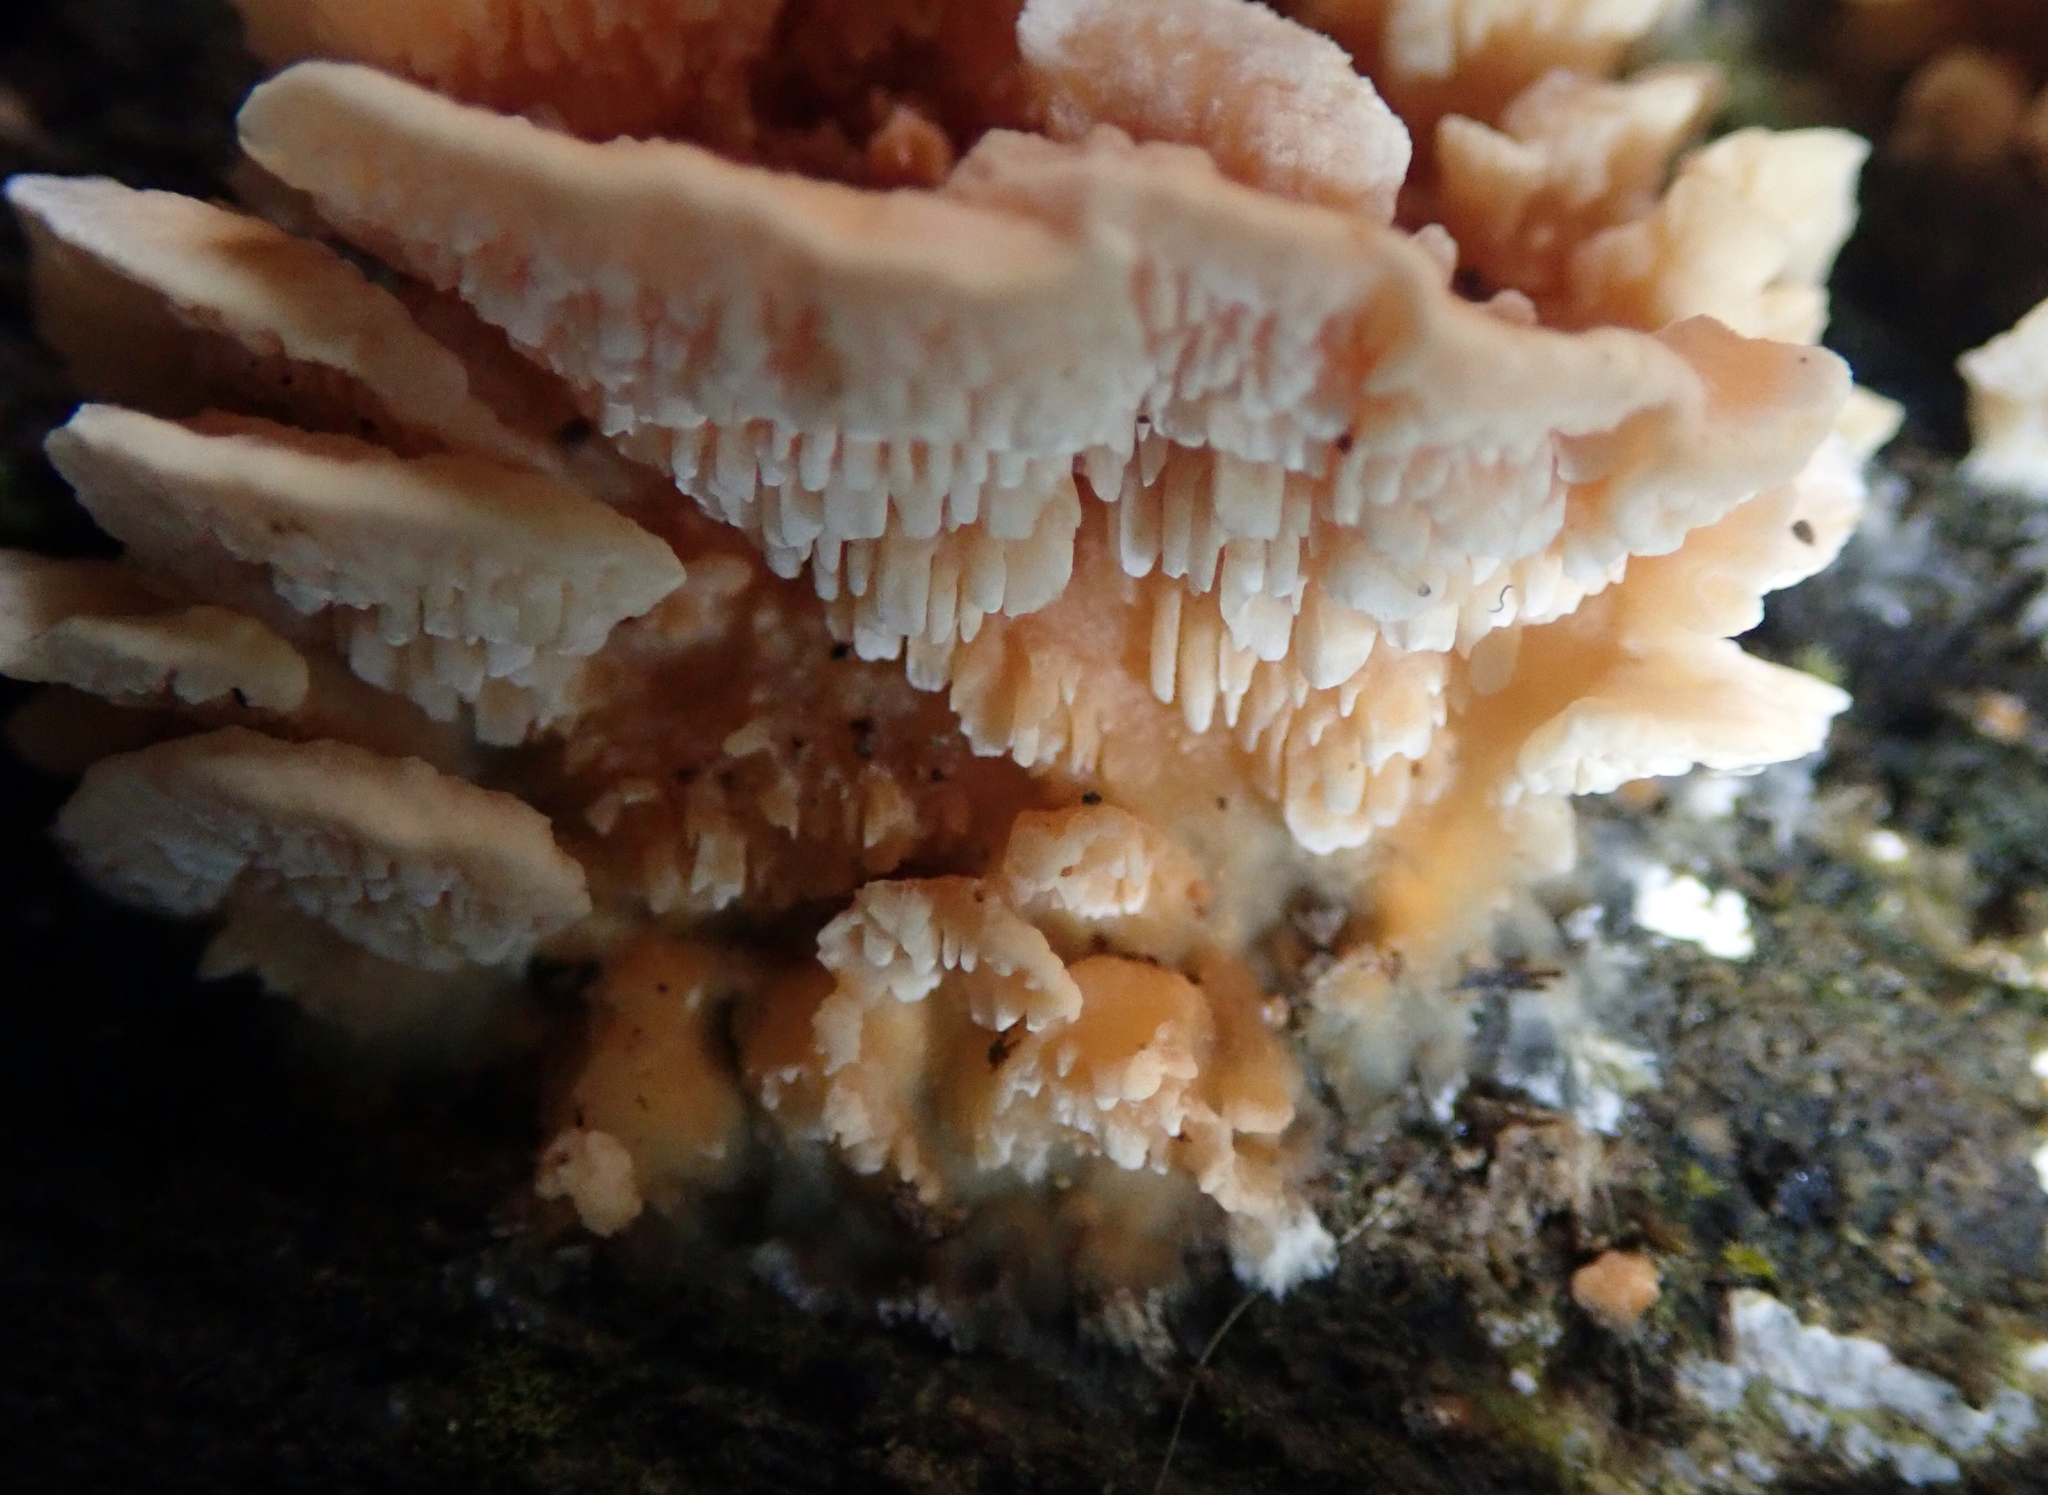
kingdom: Fungi
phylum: Basidiomycota
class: Agaricomycetes
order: Polyporales
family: Cerrenaceae
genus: Cerrena
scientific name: Cerrena zonata
